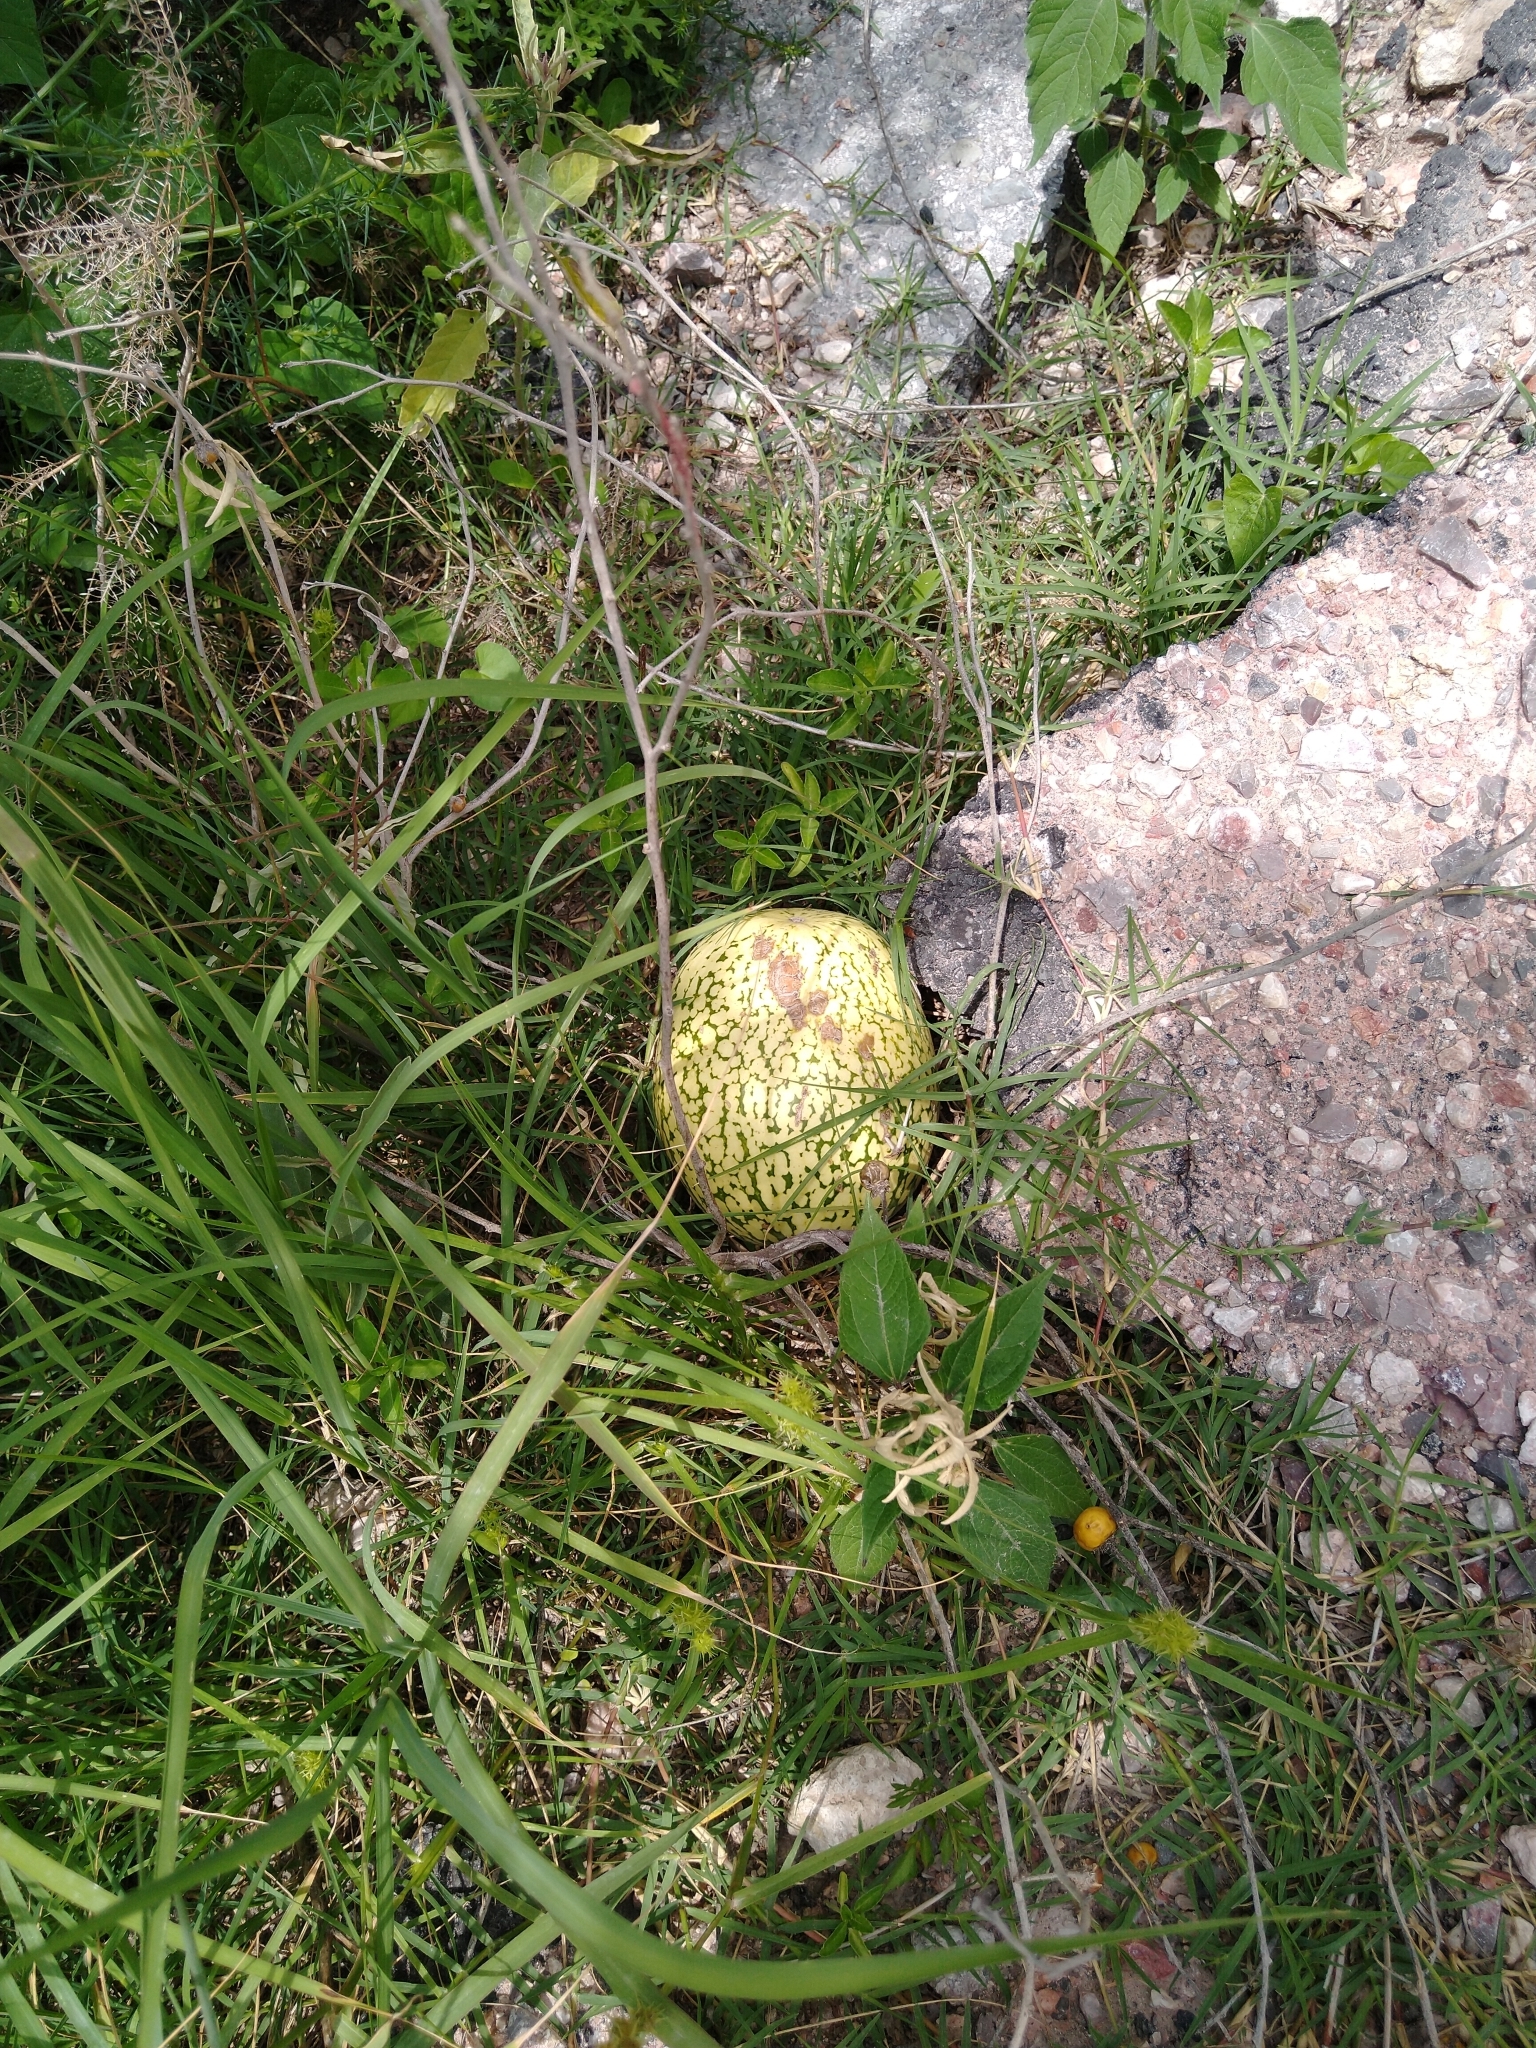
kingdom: Plantae
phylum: Tracheophyta
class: Magnoliopsida
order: Cucurbitales
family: Cucurbitaceae
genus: Cucurbita
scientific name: Cucurbita ficifolia
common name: Figleaf gourd
